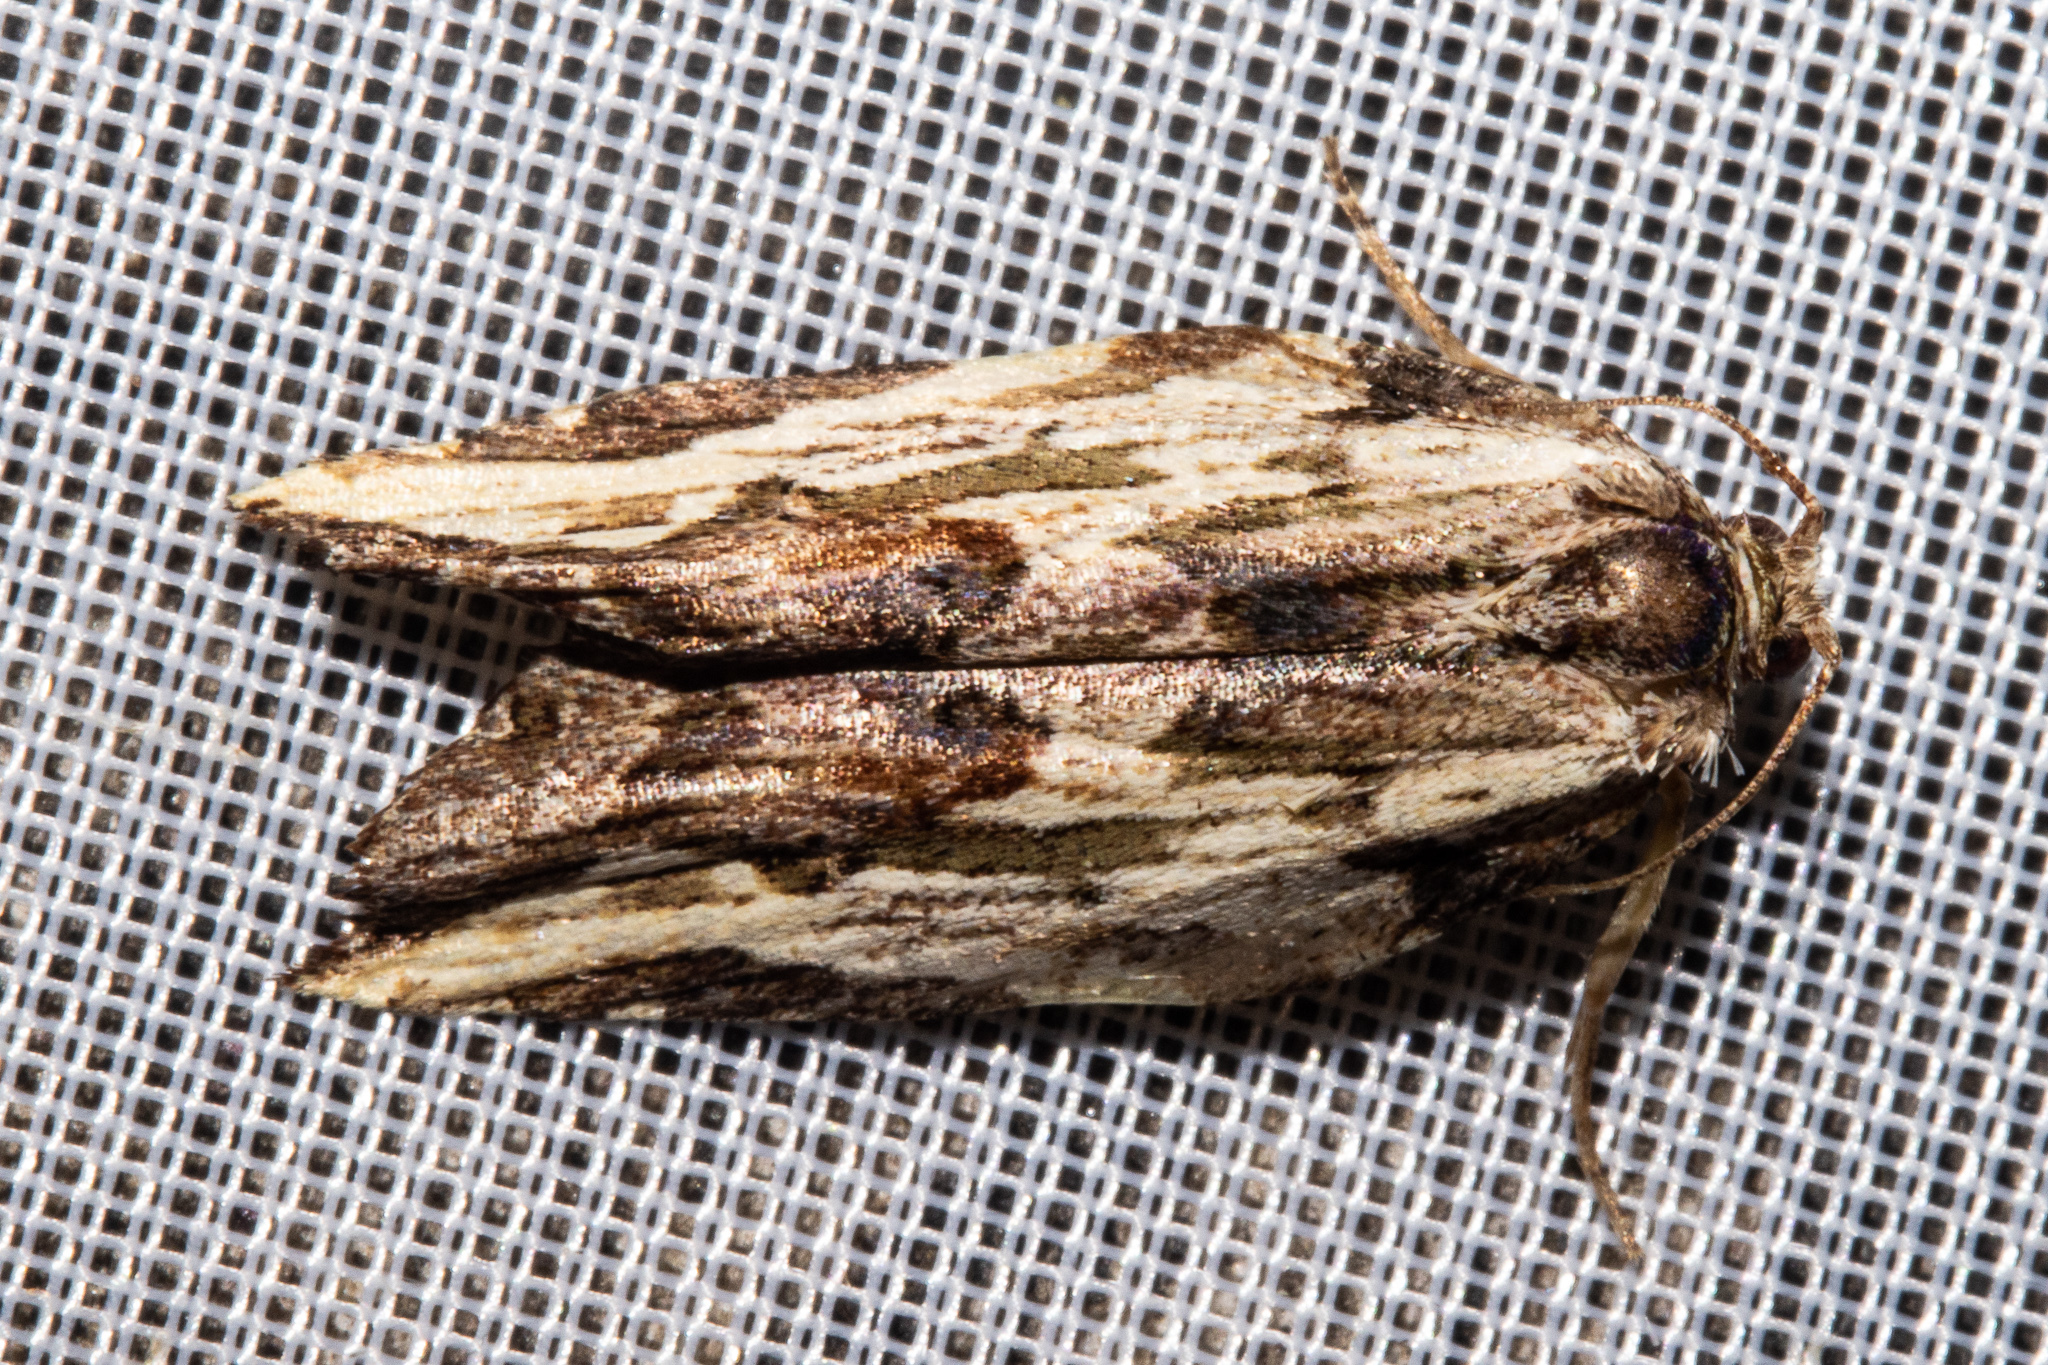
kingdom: Animalia
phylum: Arthropoda
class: Insecta
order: Lepidoptera
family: Tortricidae
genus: Epalxiphora
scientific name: Epalxiphora axenana
